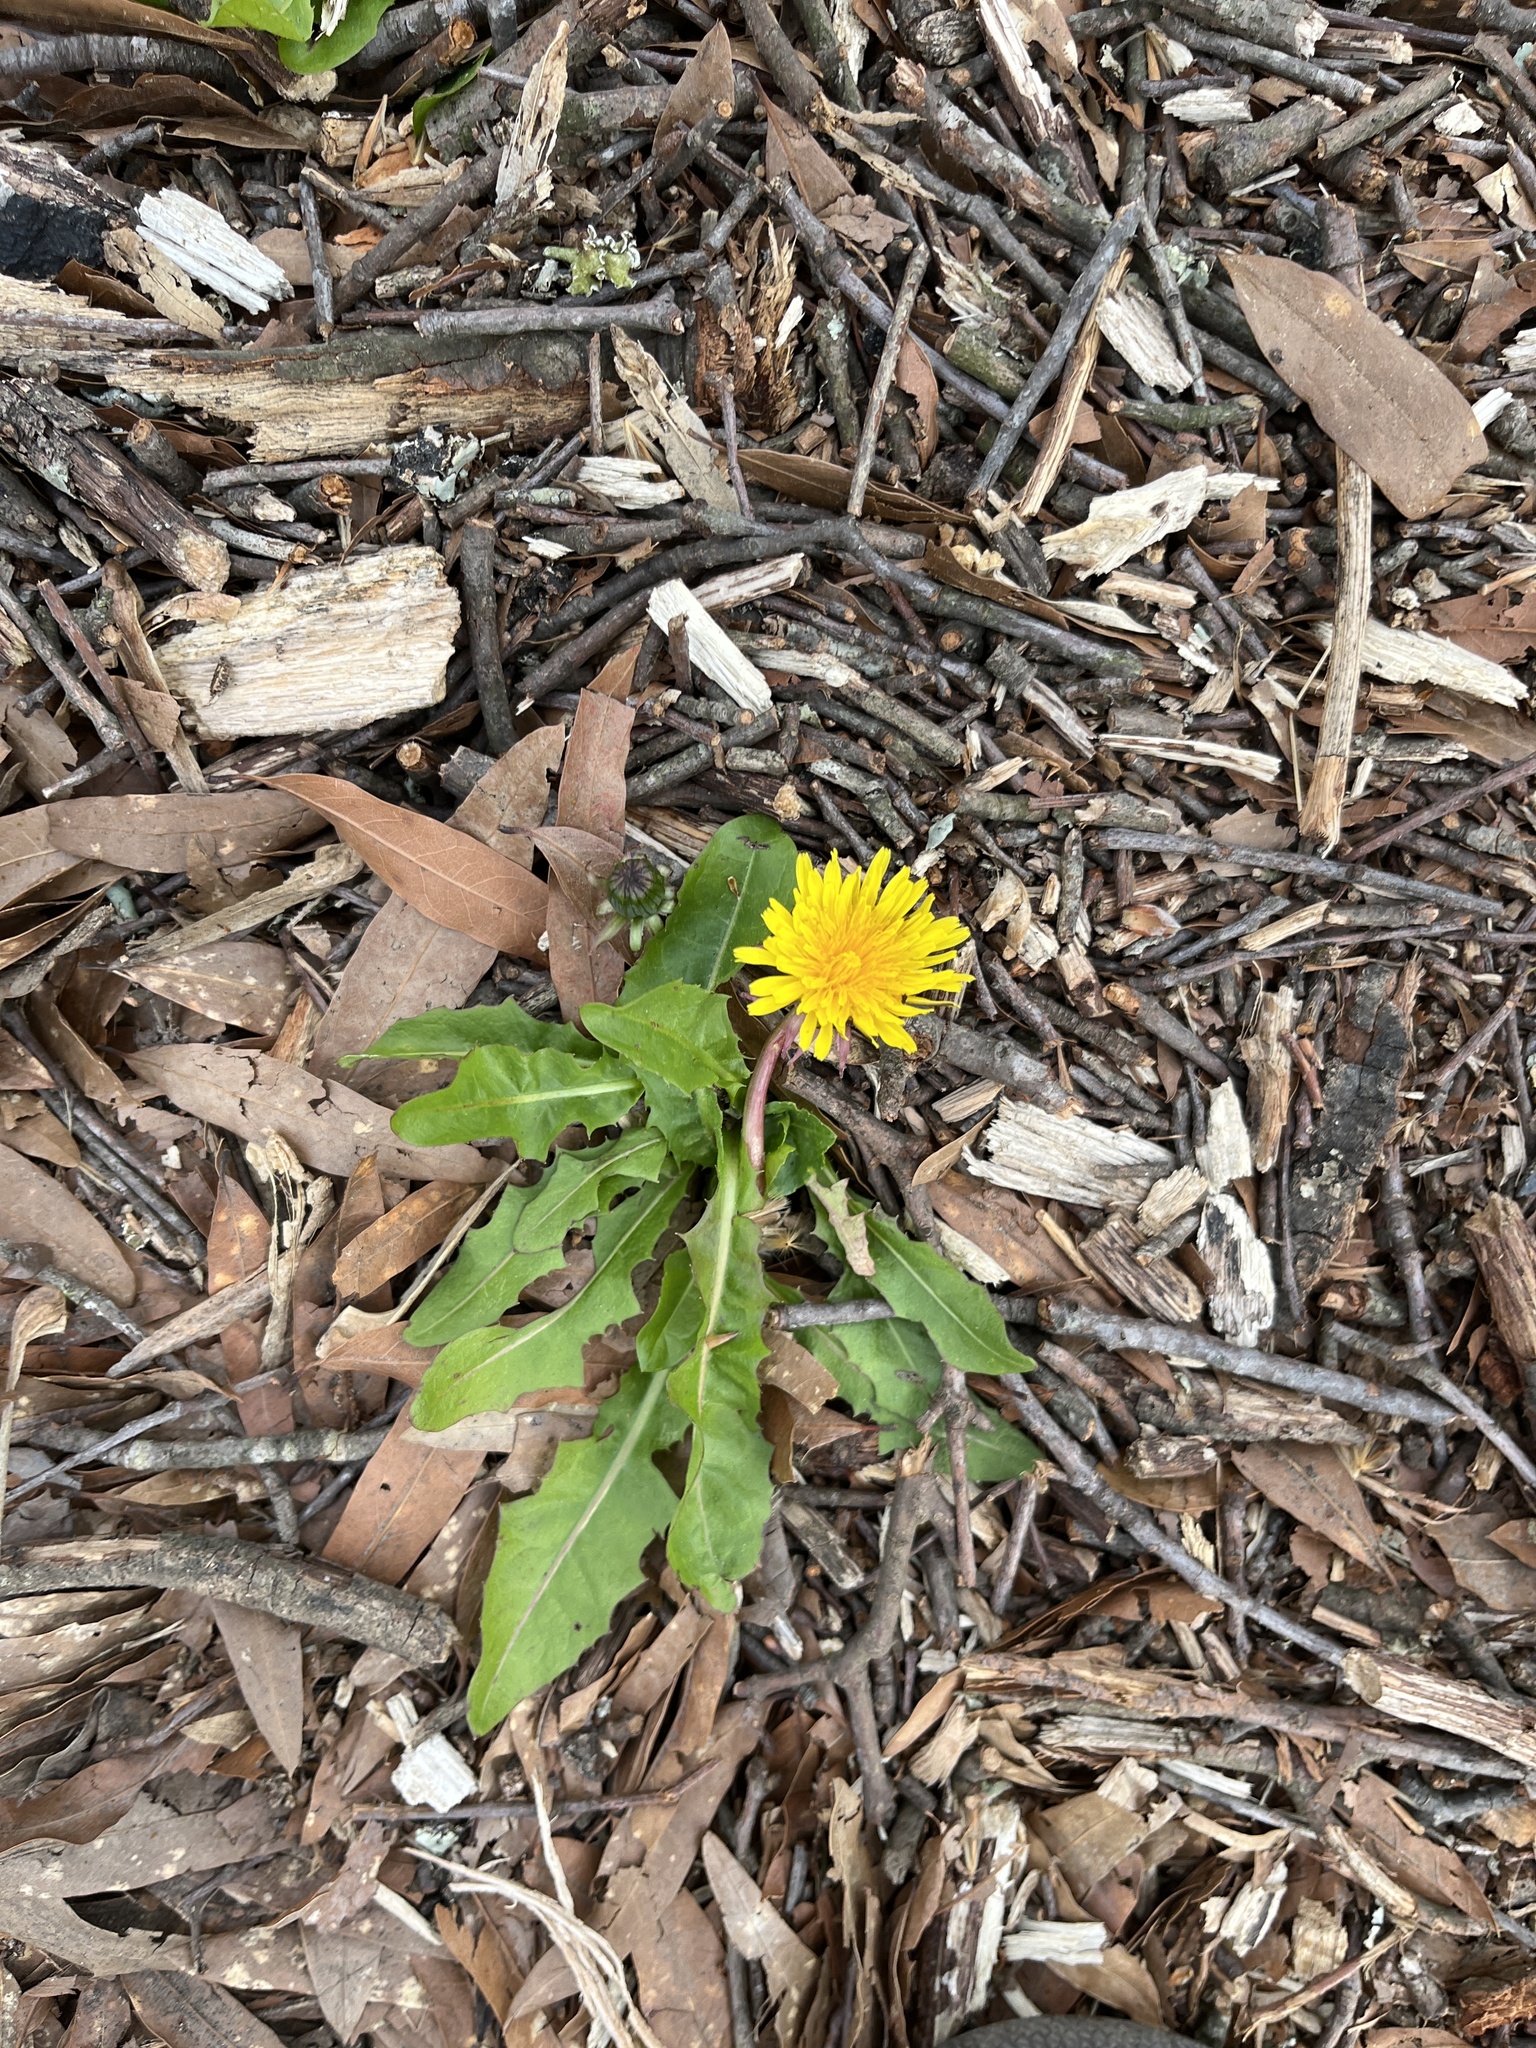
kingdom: Plantae
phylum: Tracheophyta
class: Magnoliopsida
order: Asterales
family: Asteraceae
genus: Taraxacum
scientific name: Taraxacum
